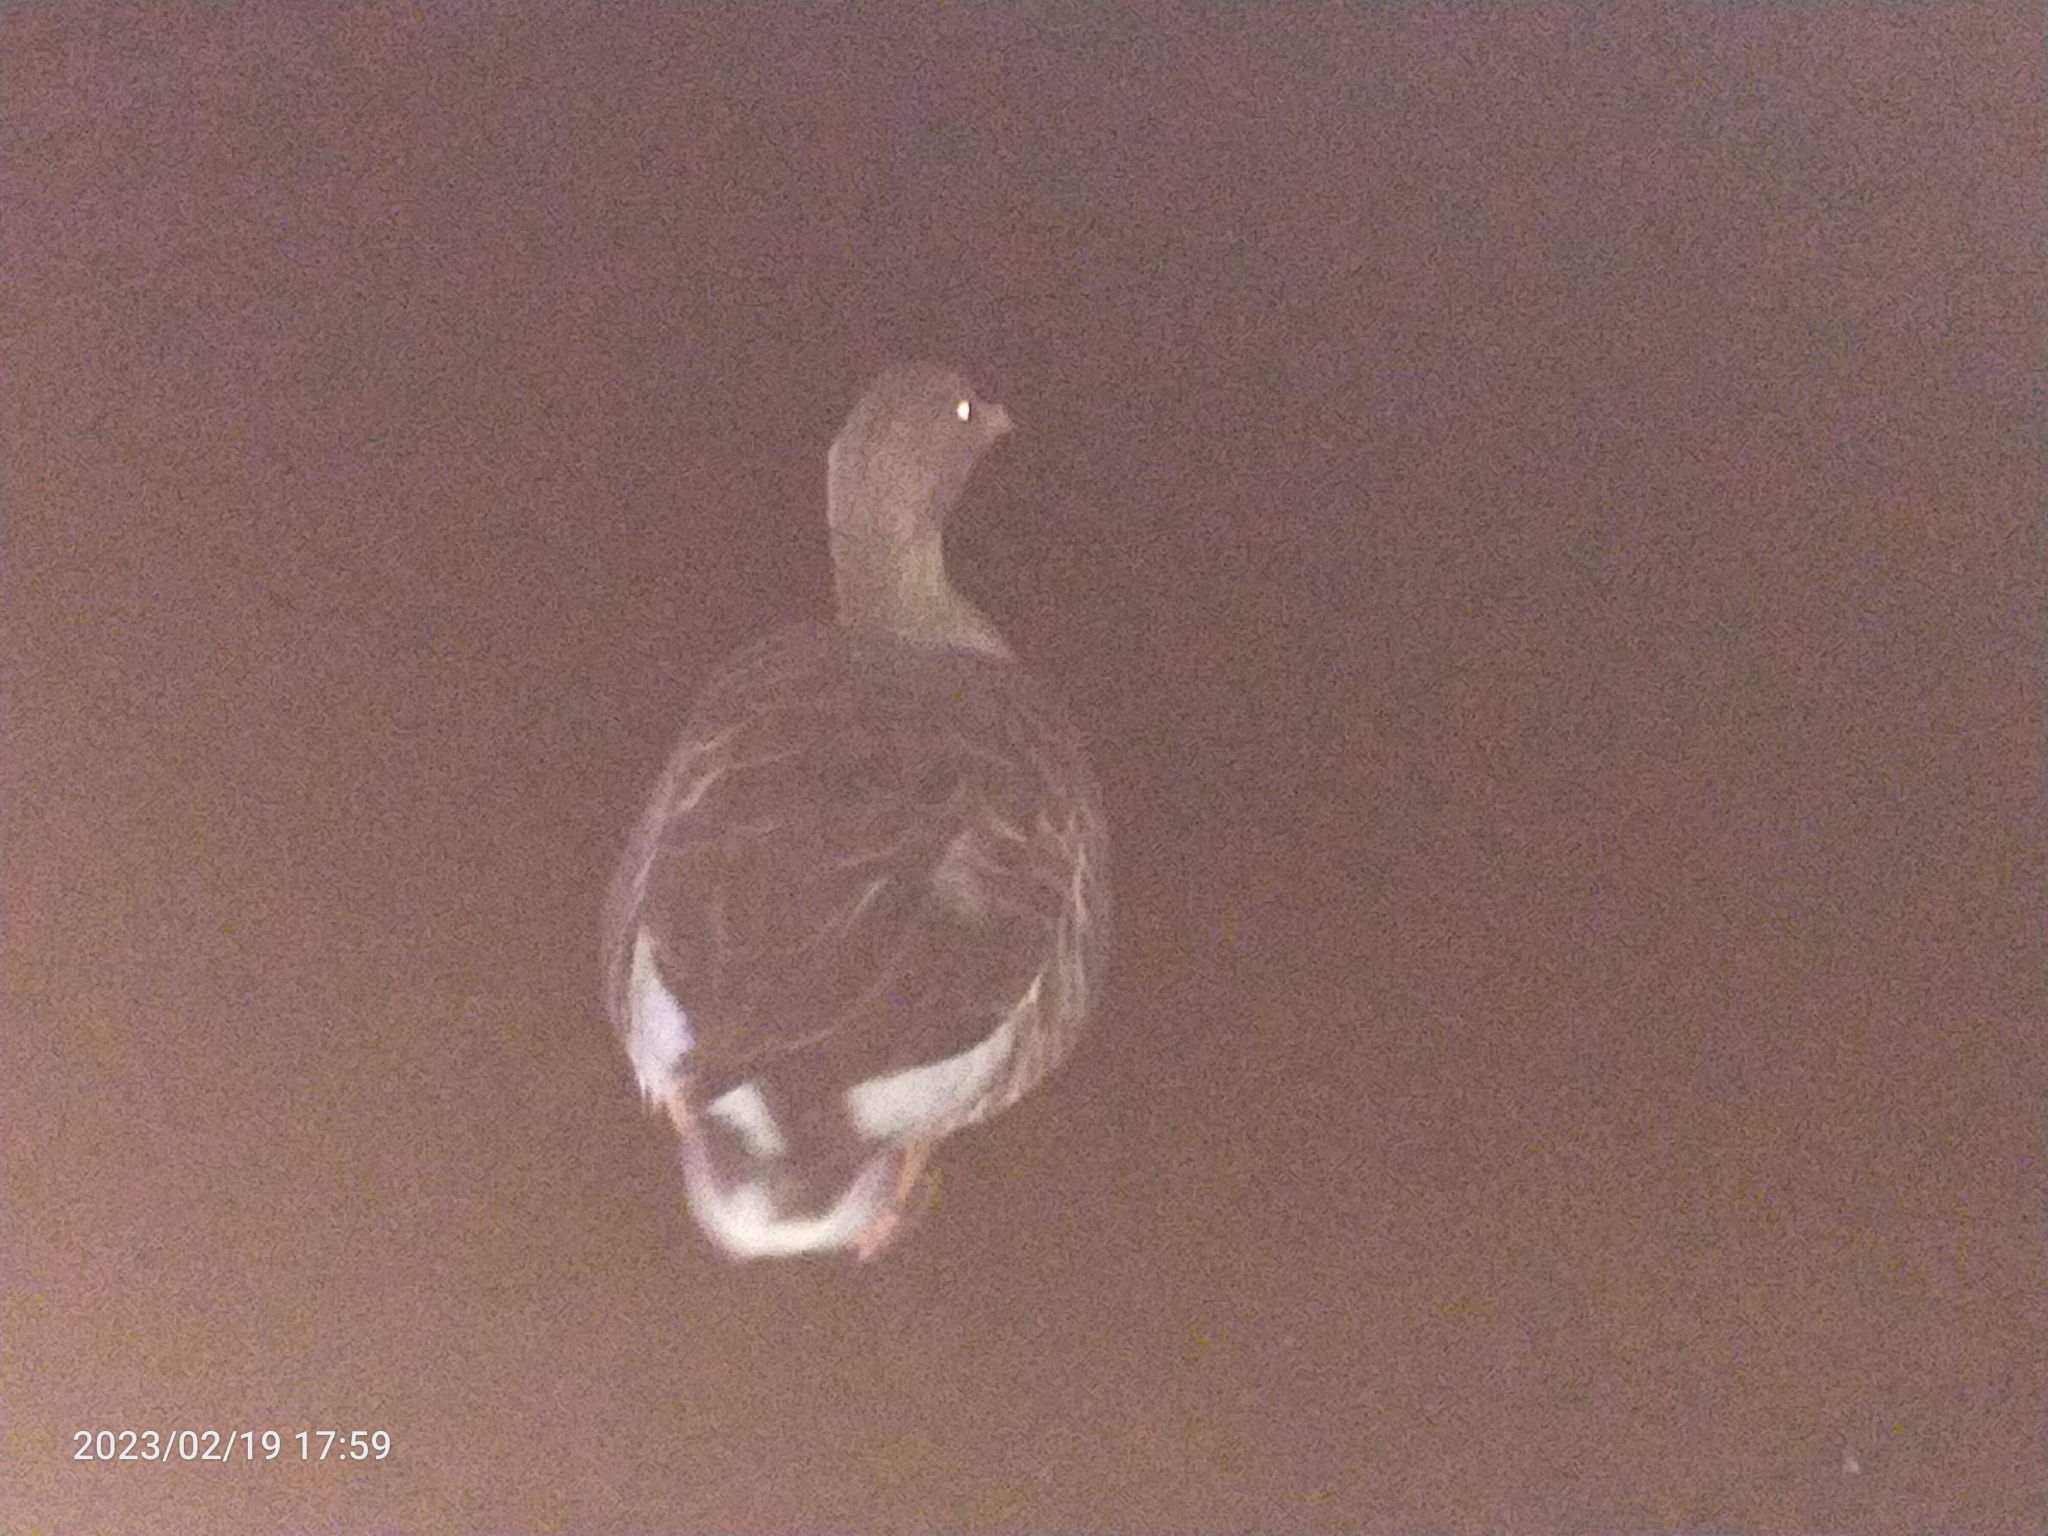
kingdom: Animalia
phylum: Chordata
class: Aves
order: Anseriformes
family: Anatidae
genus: Anser
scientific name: Anser anser
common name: Greylag goose
